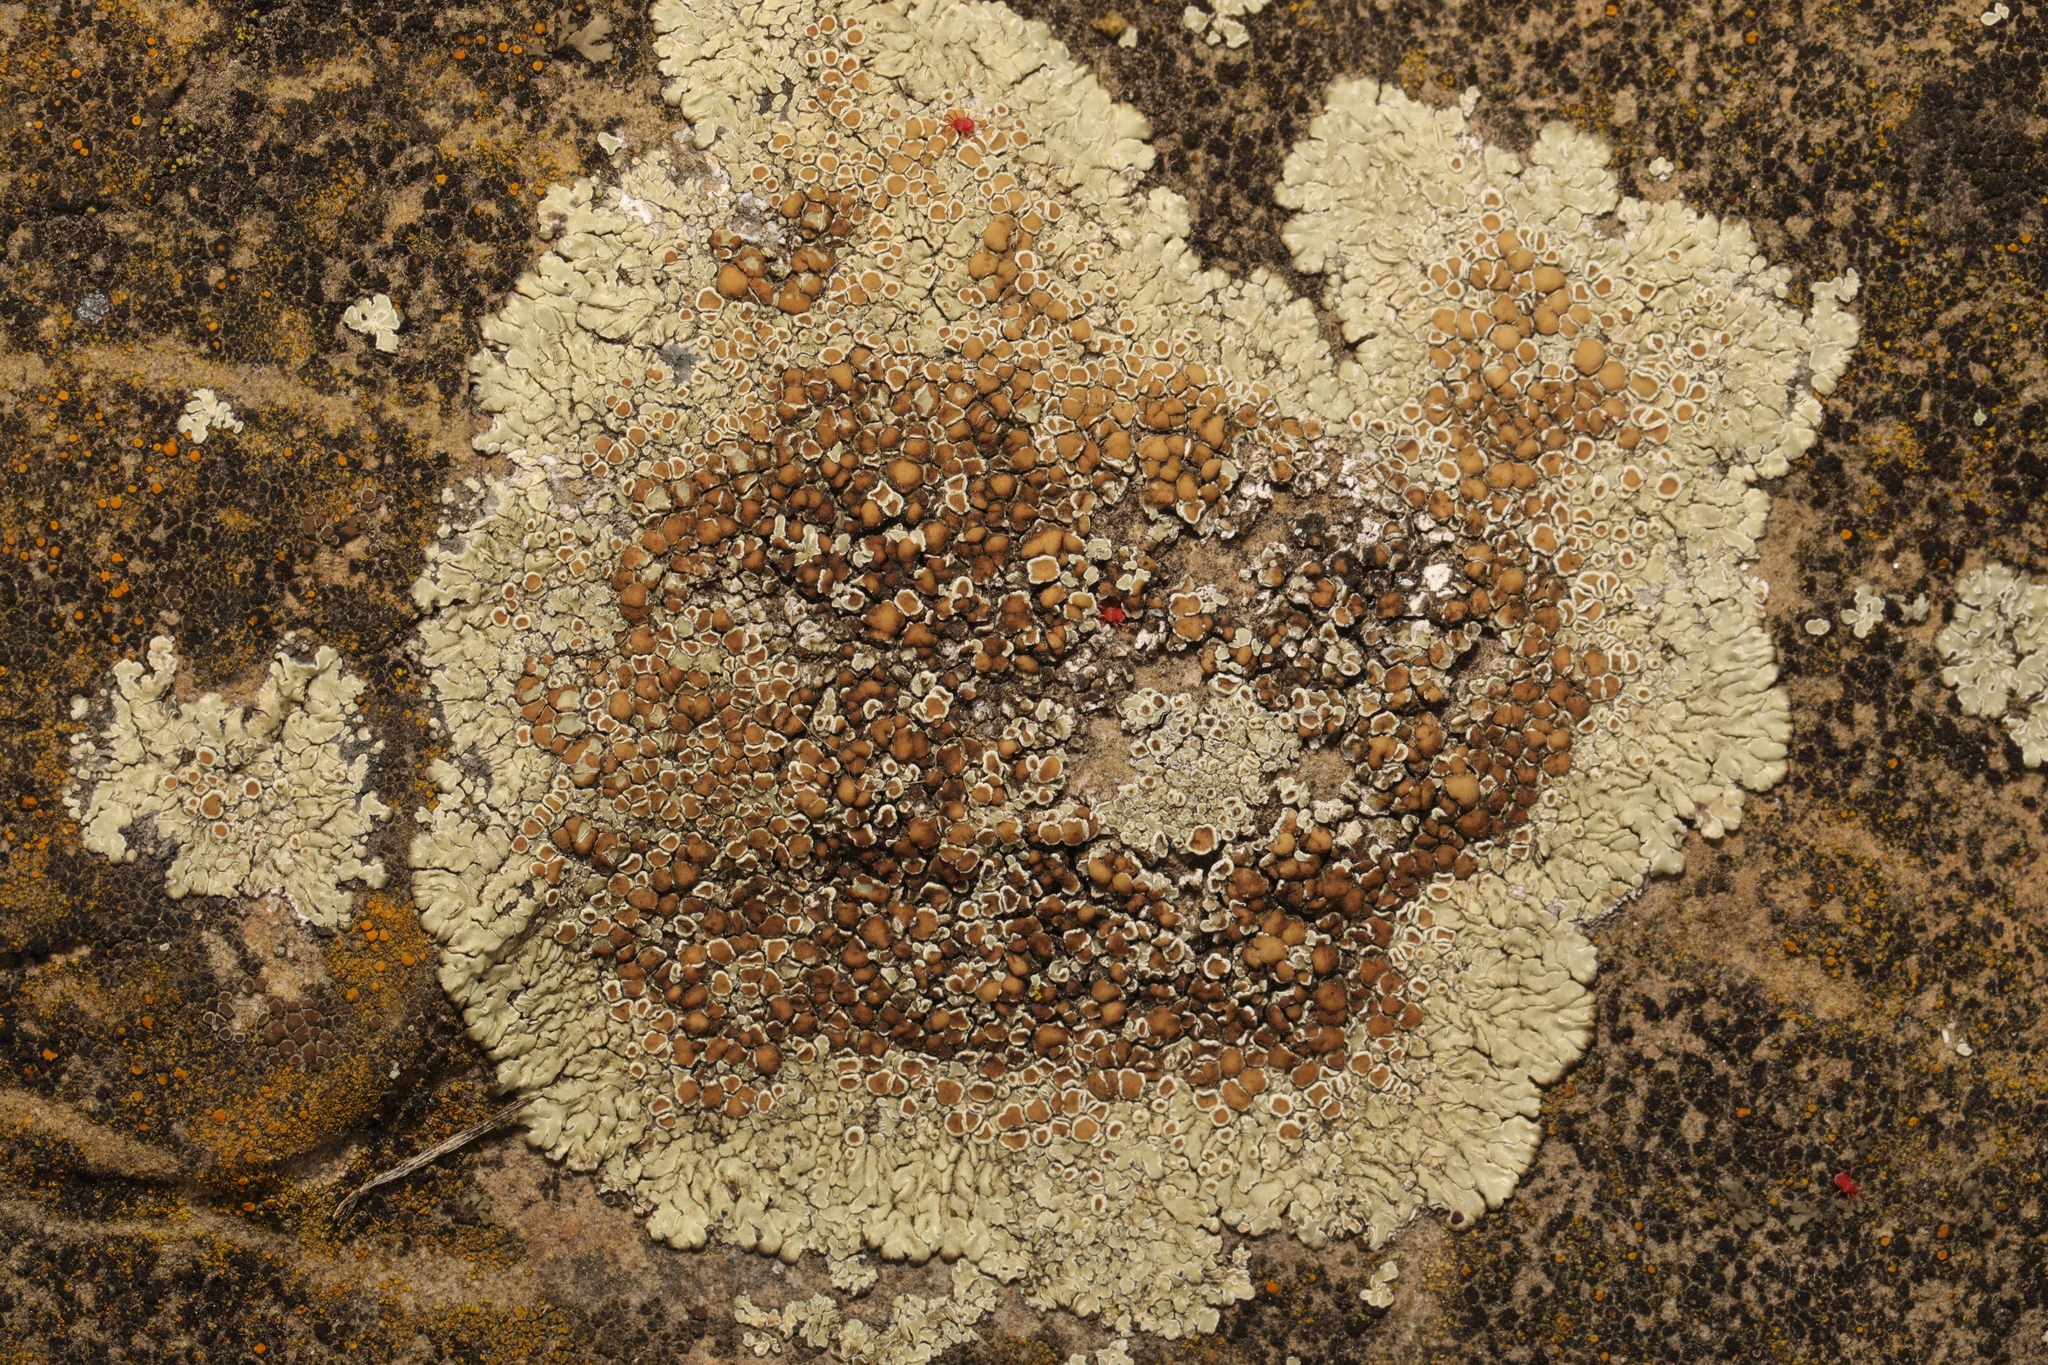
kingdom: Fungi
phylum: Ascomycota
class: Lecanoromycetes
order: Lecanorales
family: Lecanoraceae
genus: Protoparmeliopsis
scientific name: Protoparmeliopsis muralis
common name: Stonewall rim lichen
